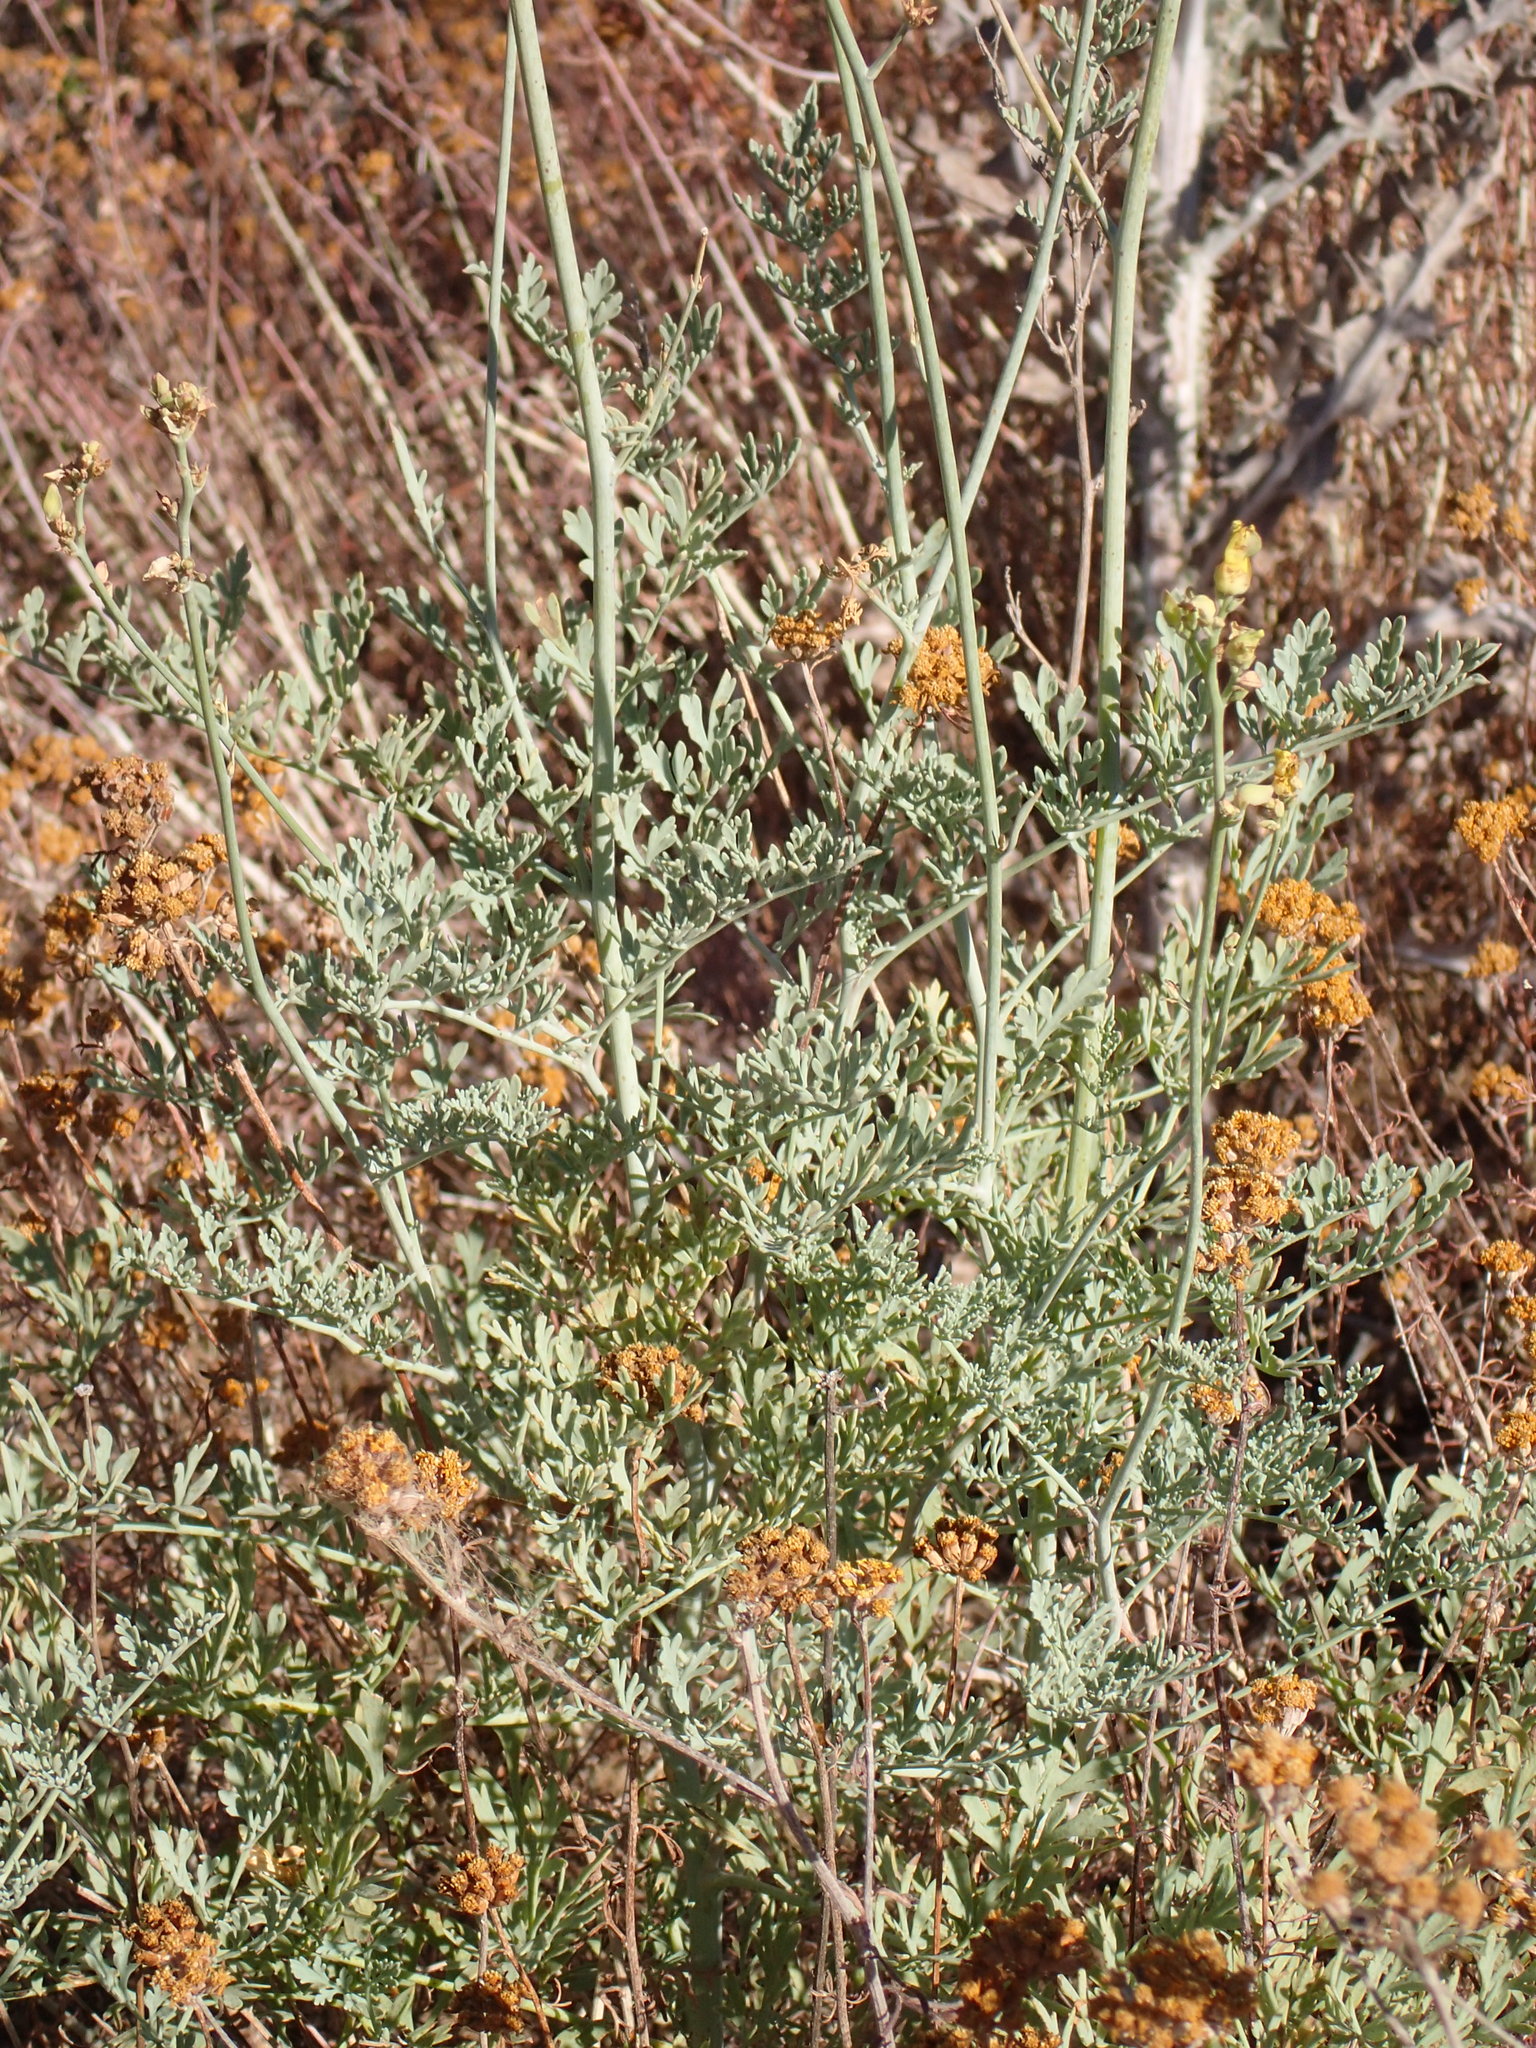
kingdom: Plantae
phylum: Tracheophyta
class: Magnoliopsida
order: Ranunculales
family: Papaveraceae
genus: Ehrendorferia
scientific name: Ehrendorferia chrysantha
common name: Golden eardrops
